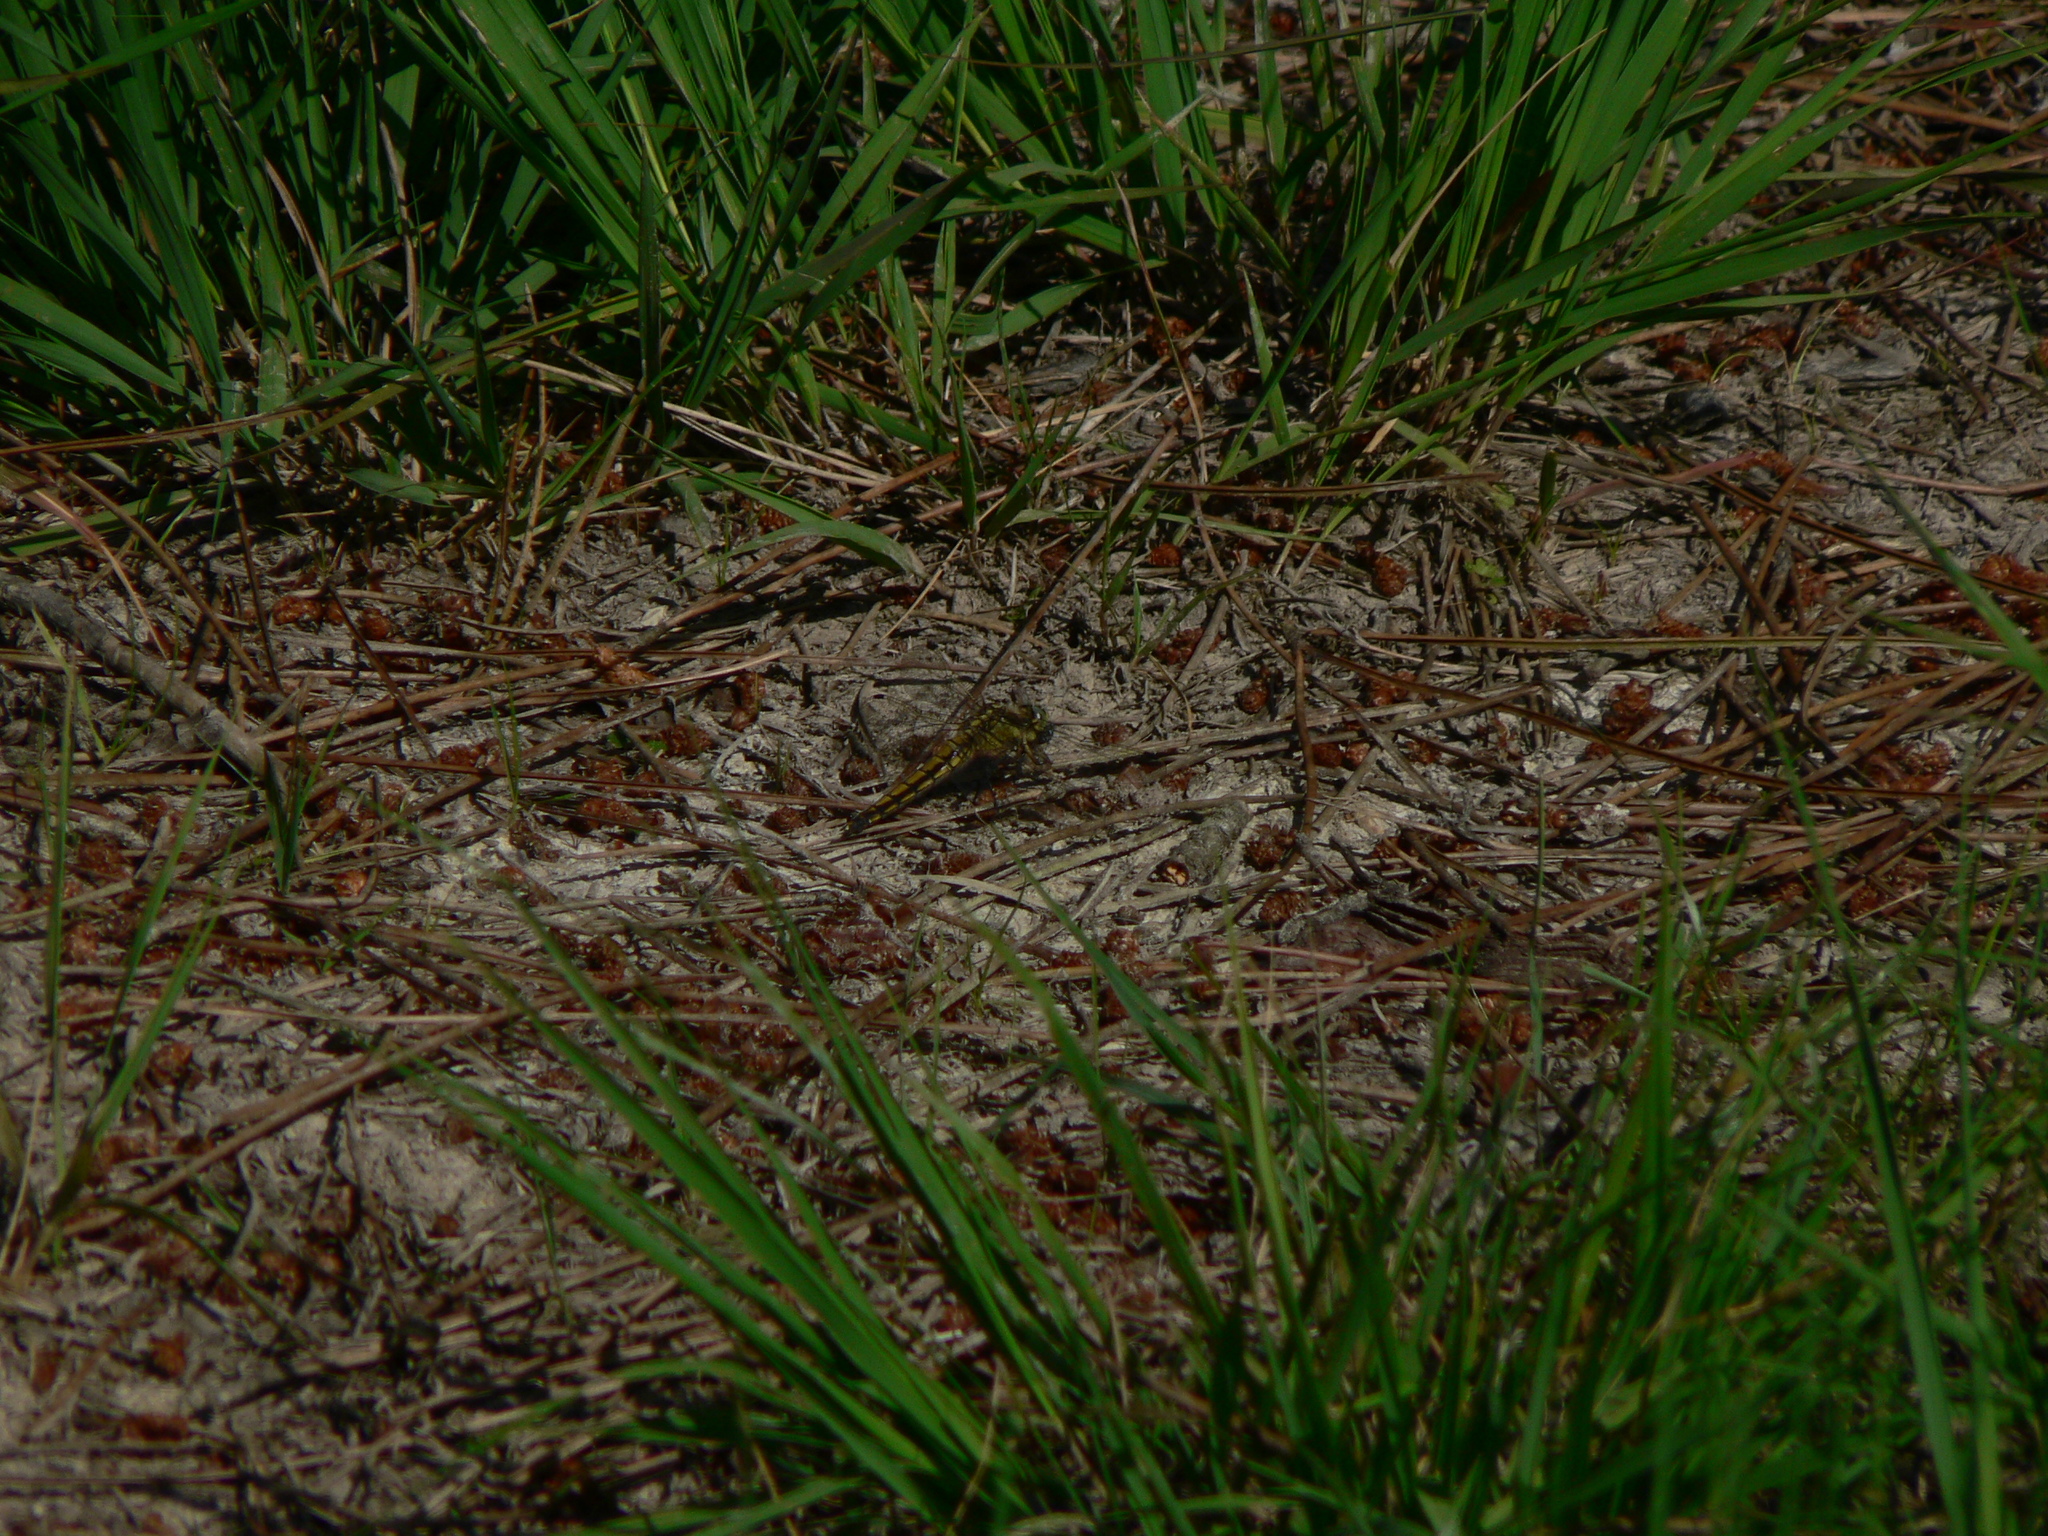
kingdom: Animalia
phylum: Arthropoda
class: Insecta
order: Odonata
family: Libellulidae
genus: Orthetrum
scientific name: Orthetrum cancellatum
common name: Black-tailed skimmer
